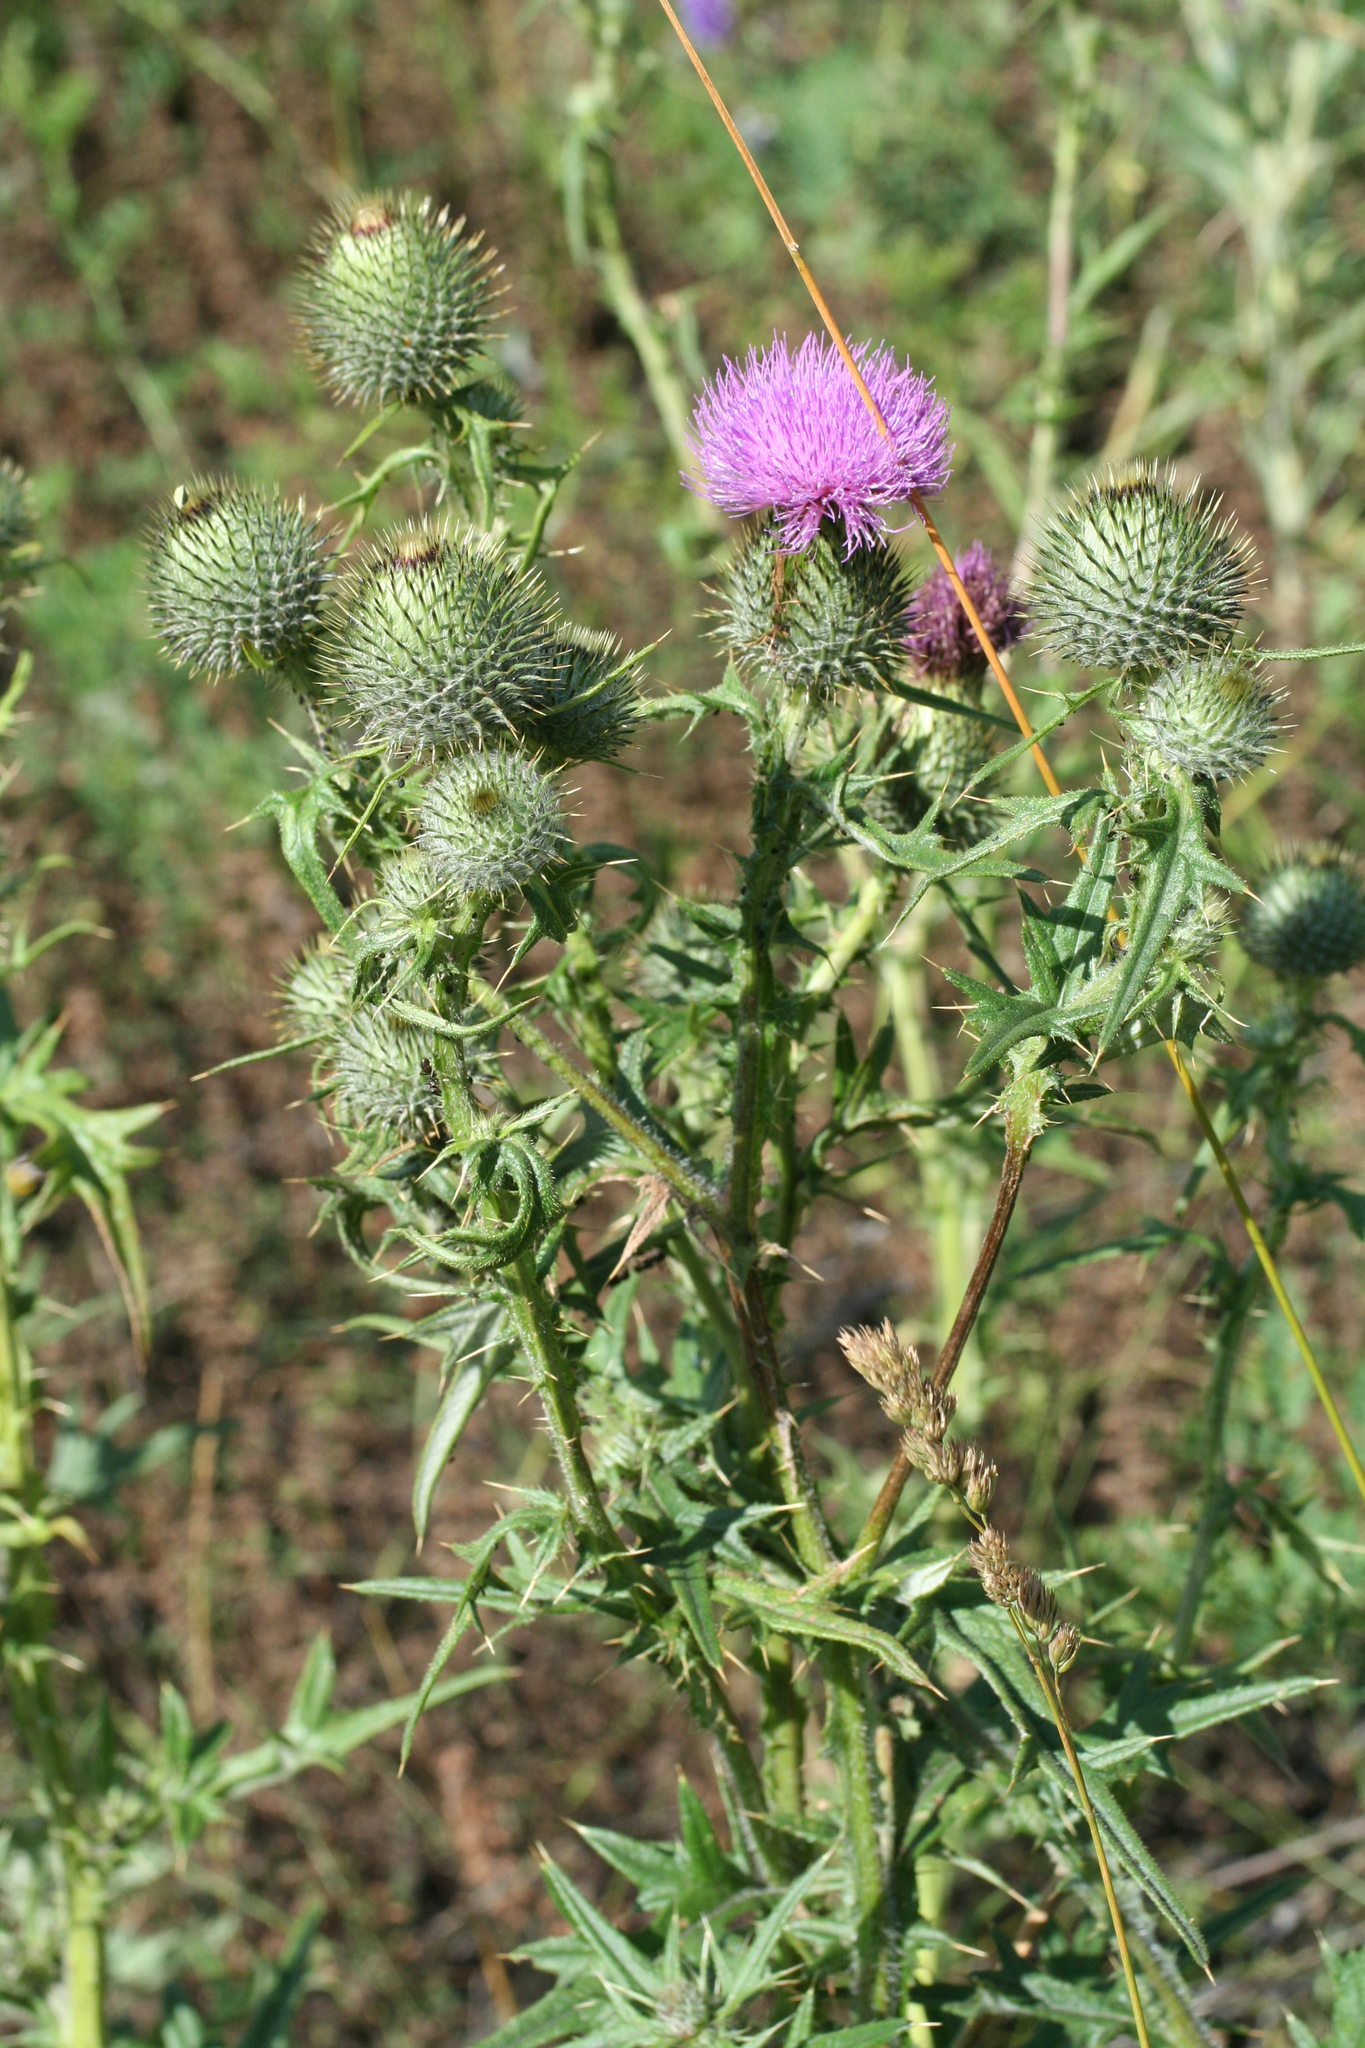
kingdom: Plantae
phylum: Tracheophyta
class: Magnoliopsida
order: Asterales
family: Asteraceae
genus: Cirsium
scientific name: Cirsium vulgare
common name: Bull thistle
